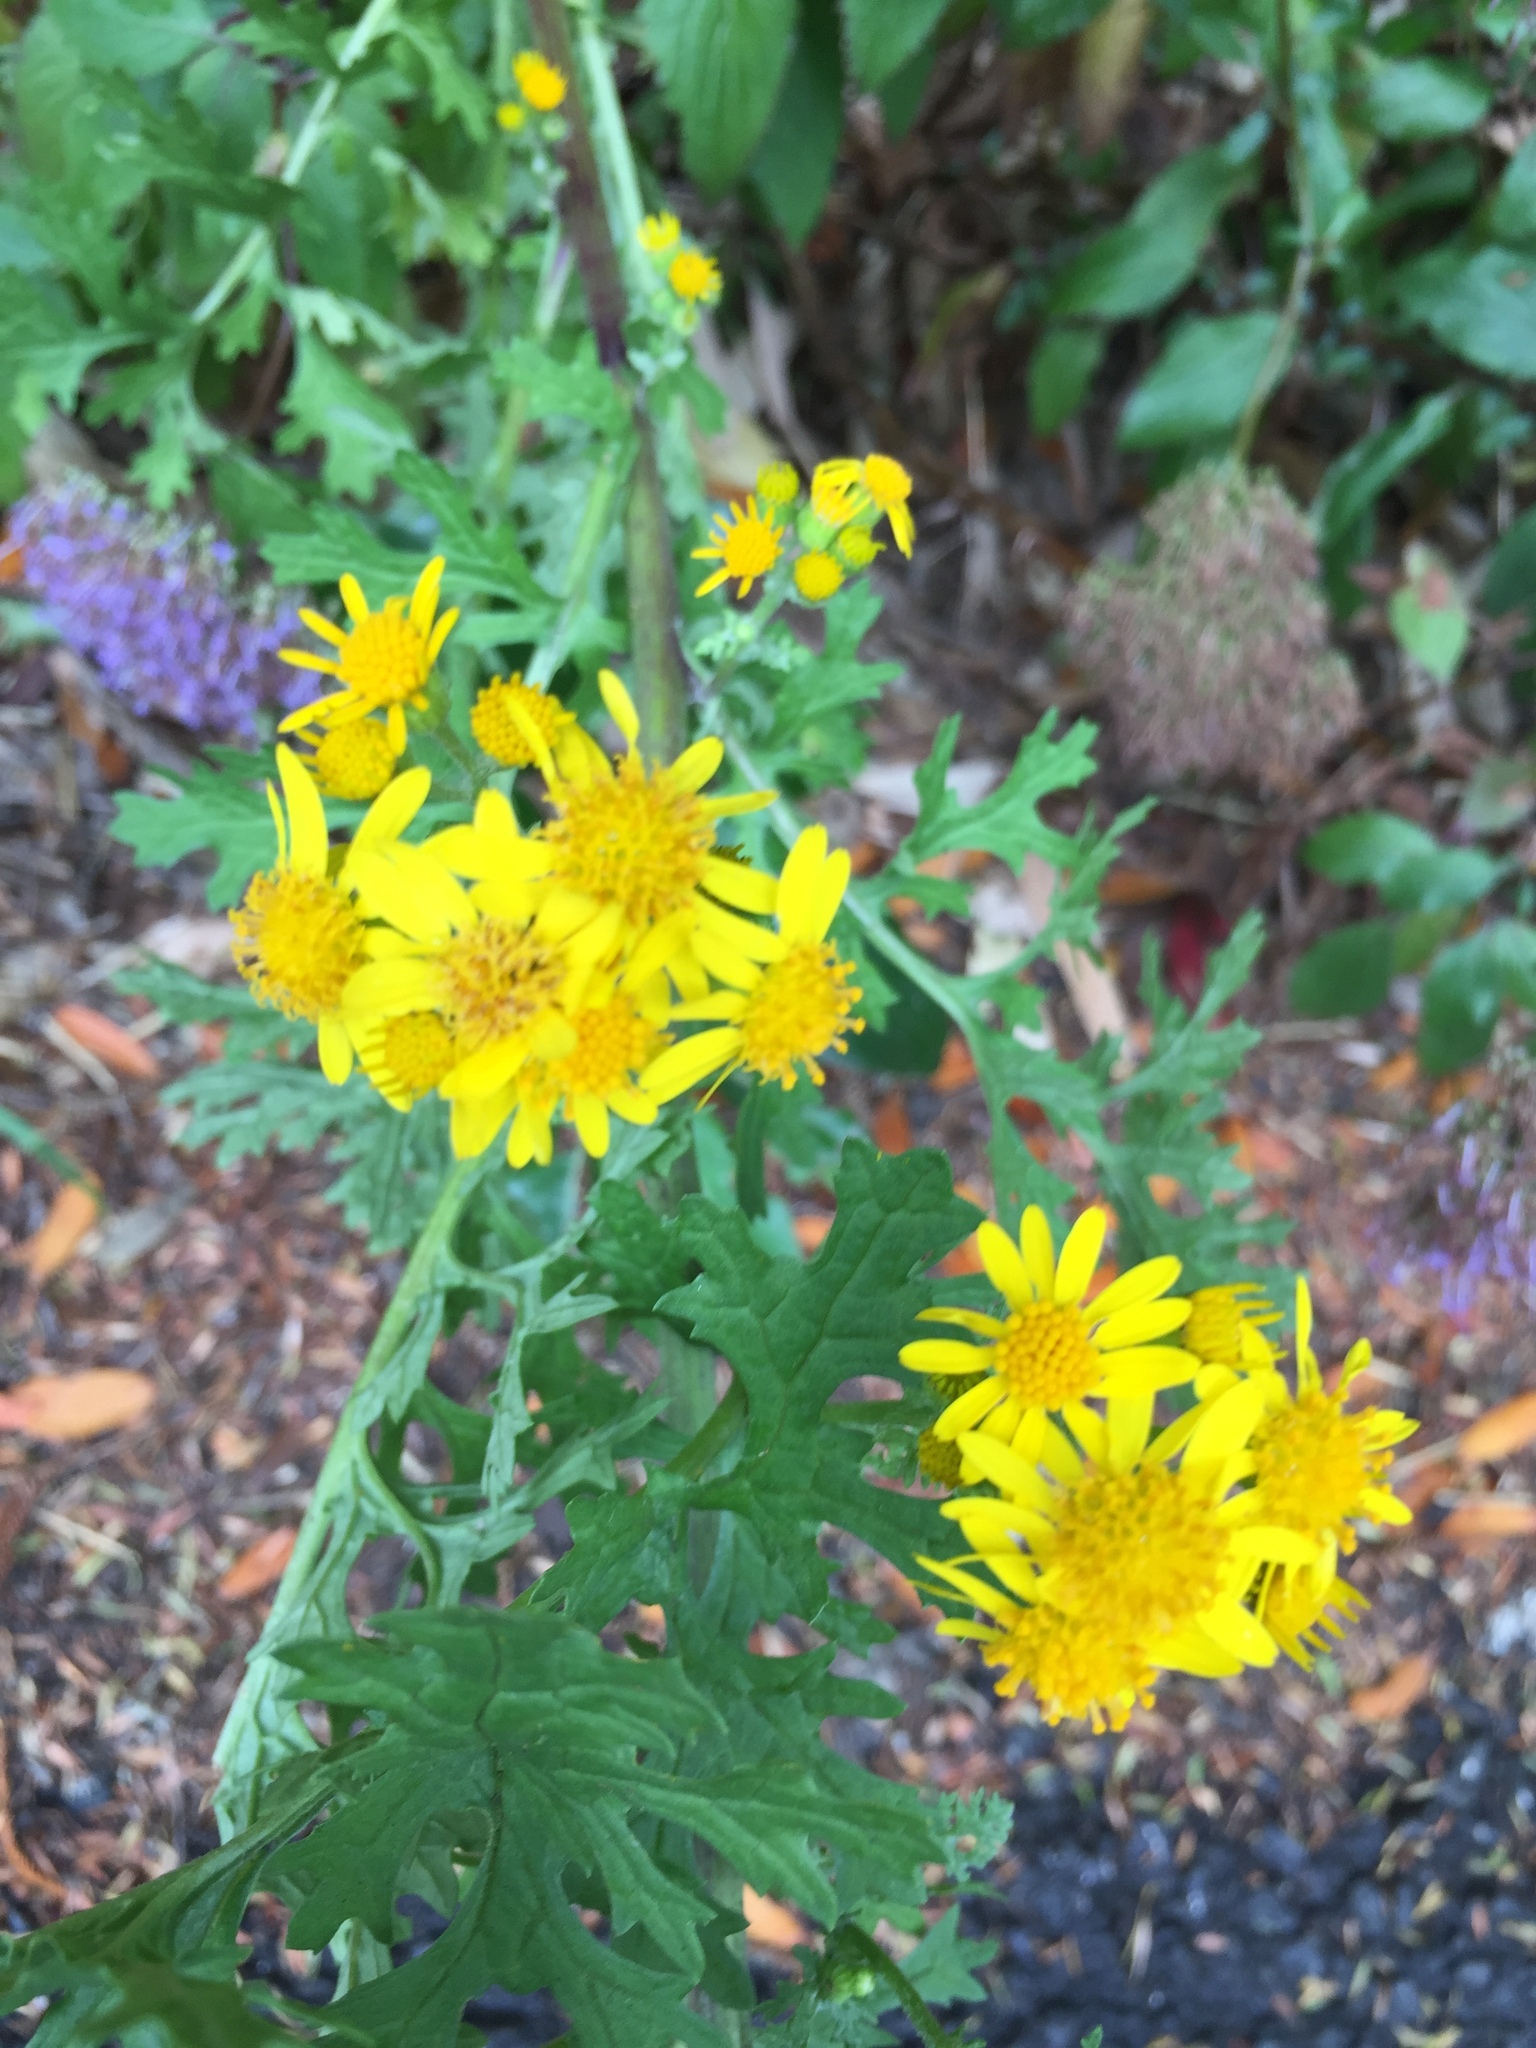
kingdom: Plantae
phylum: Tracheophyta
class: Magnoliopsida
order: Asterales
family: Asteraceae
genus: Jacobaea
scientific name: Jacobaea vulgaris
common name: Stinking willie
